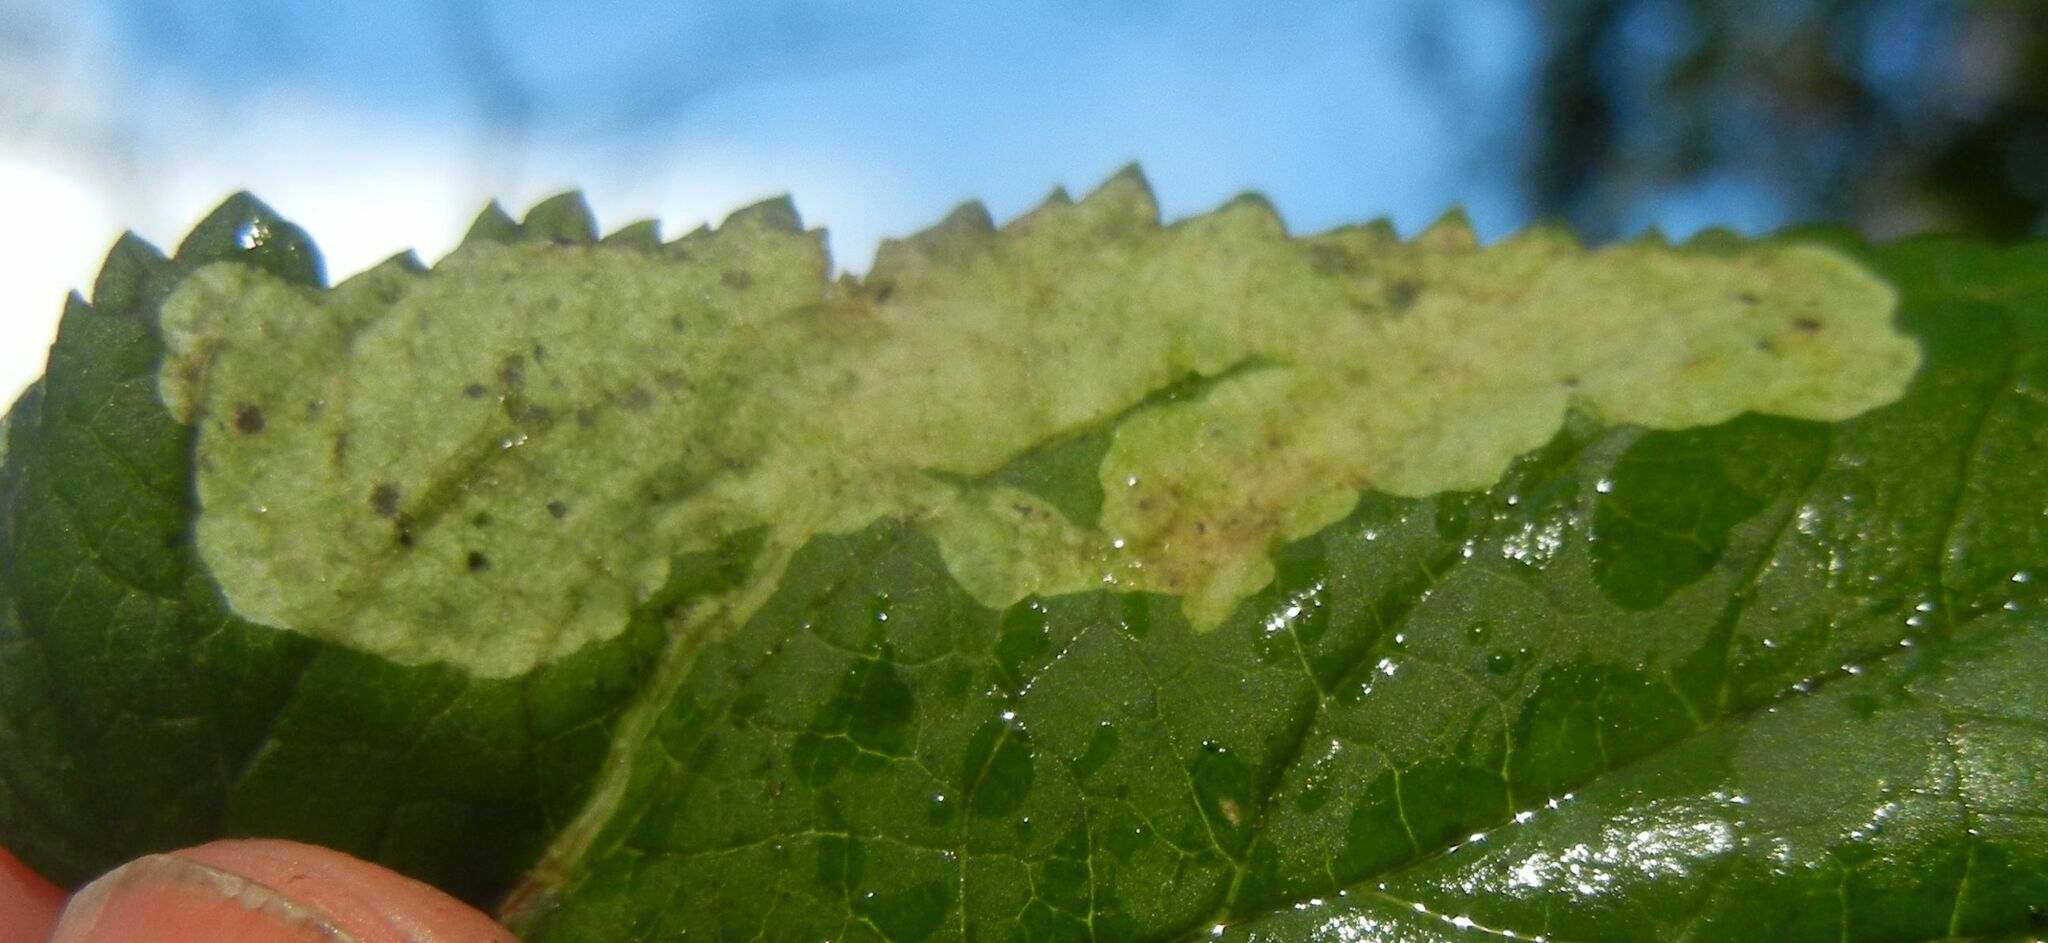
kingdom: Animalia
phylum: Arthropoda
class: Insecta
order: Diptera
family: Agromyzidae
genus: Amauromyza
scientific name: Amauromyza verbasci
